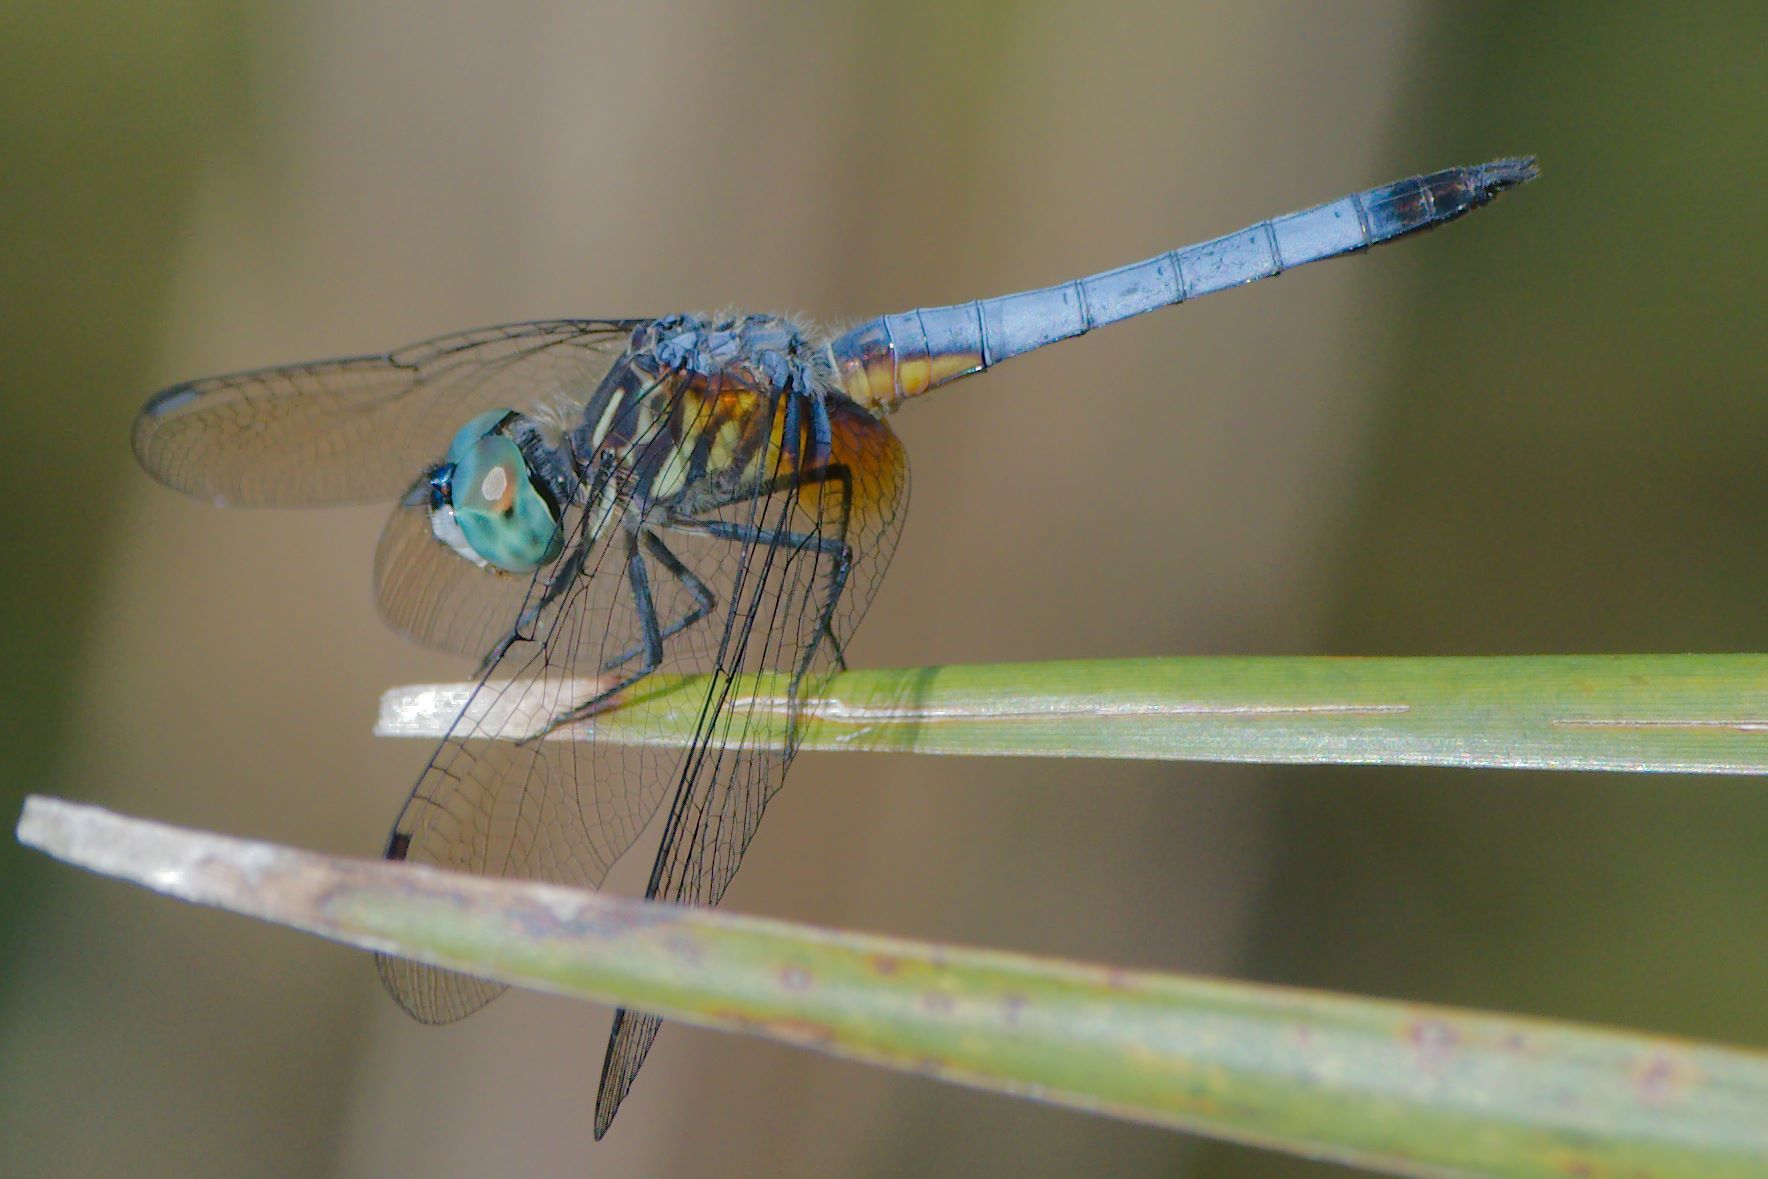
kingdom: Animalia
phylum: Arthropoda
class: Insecta
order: Odonata
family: Libellulidae
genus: Pachydiplax
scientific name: Pachydiplax longipennis
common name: Blue dasher
